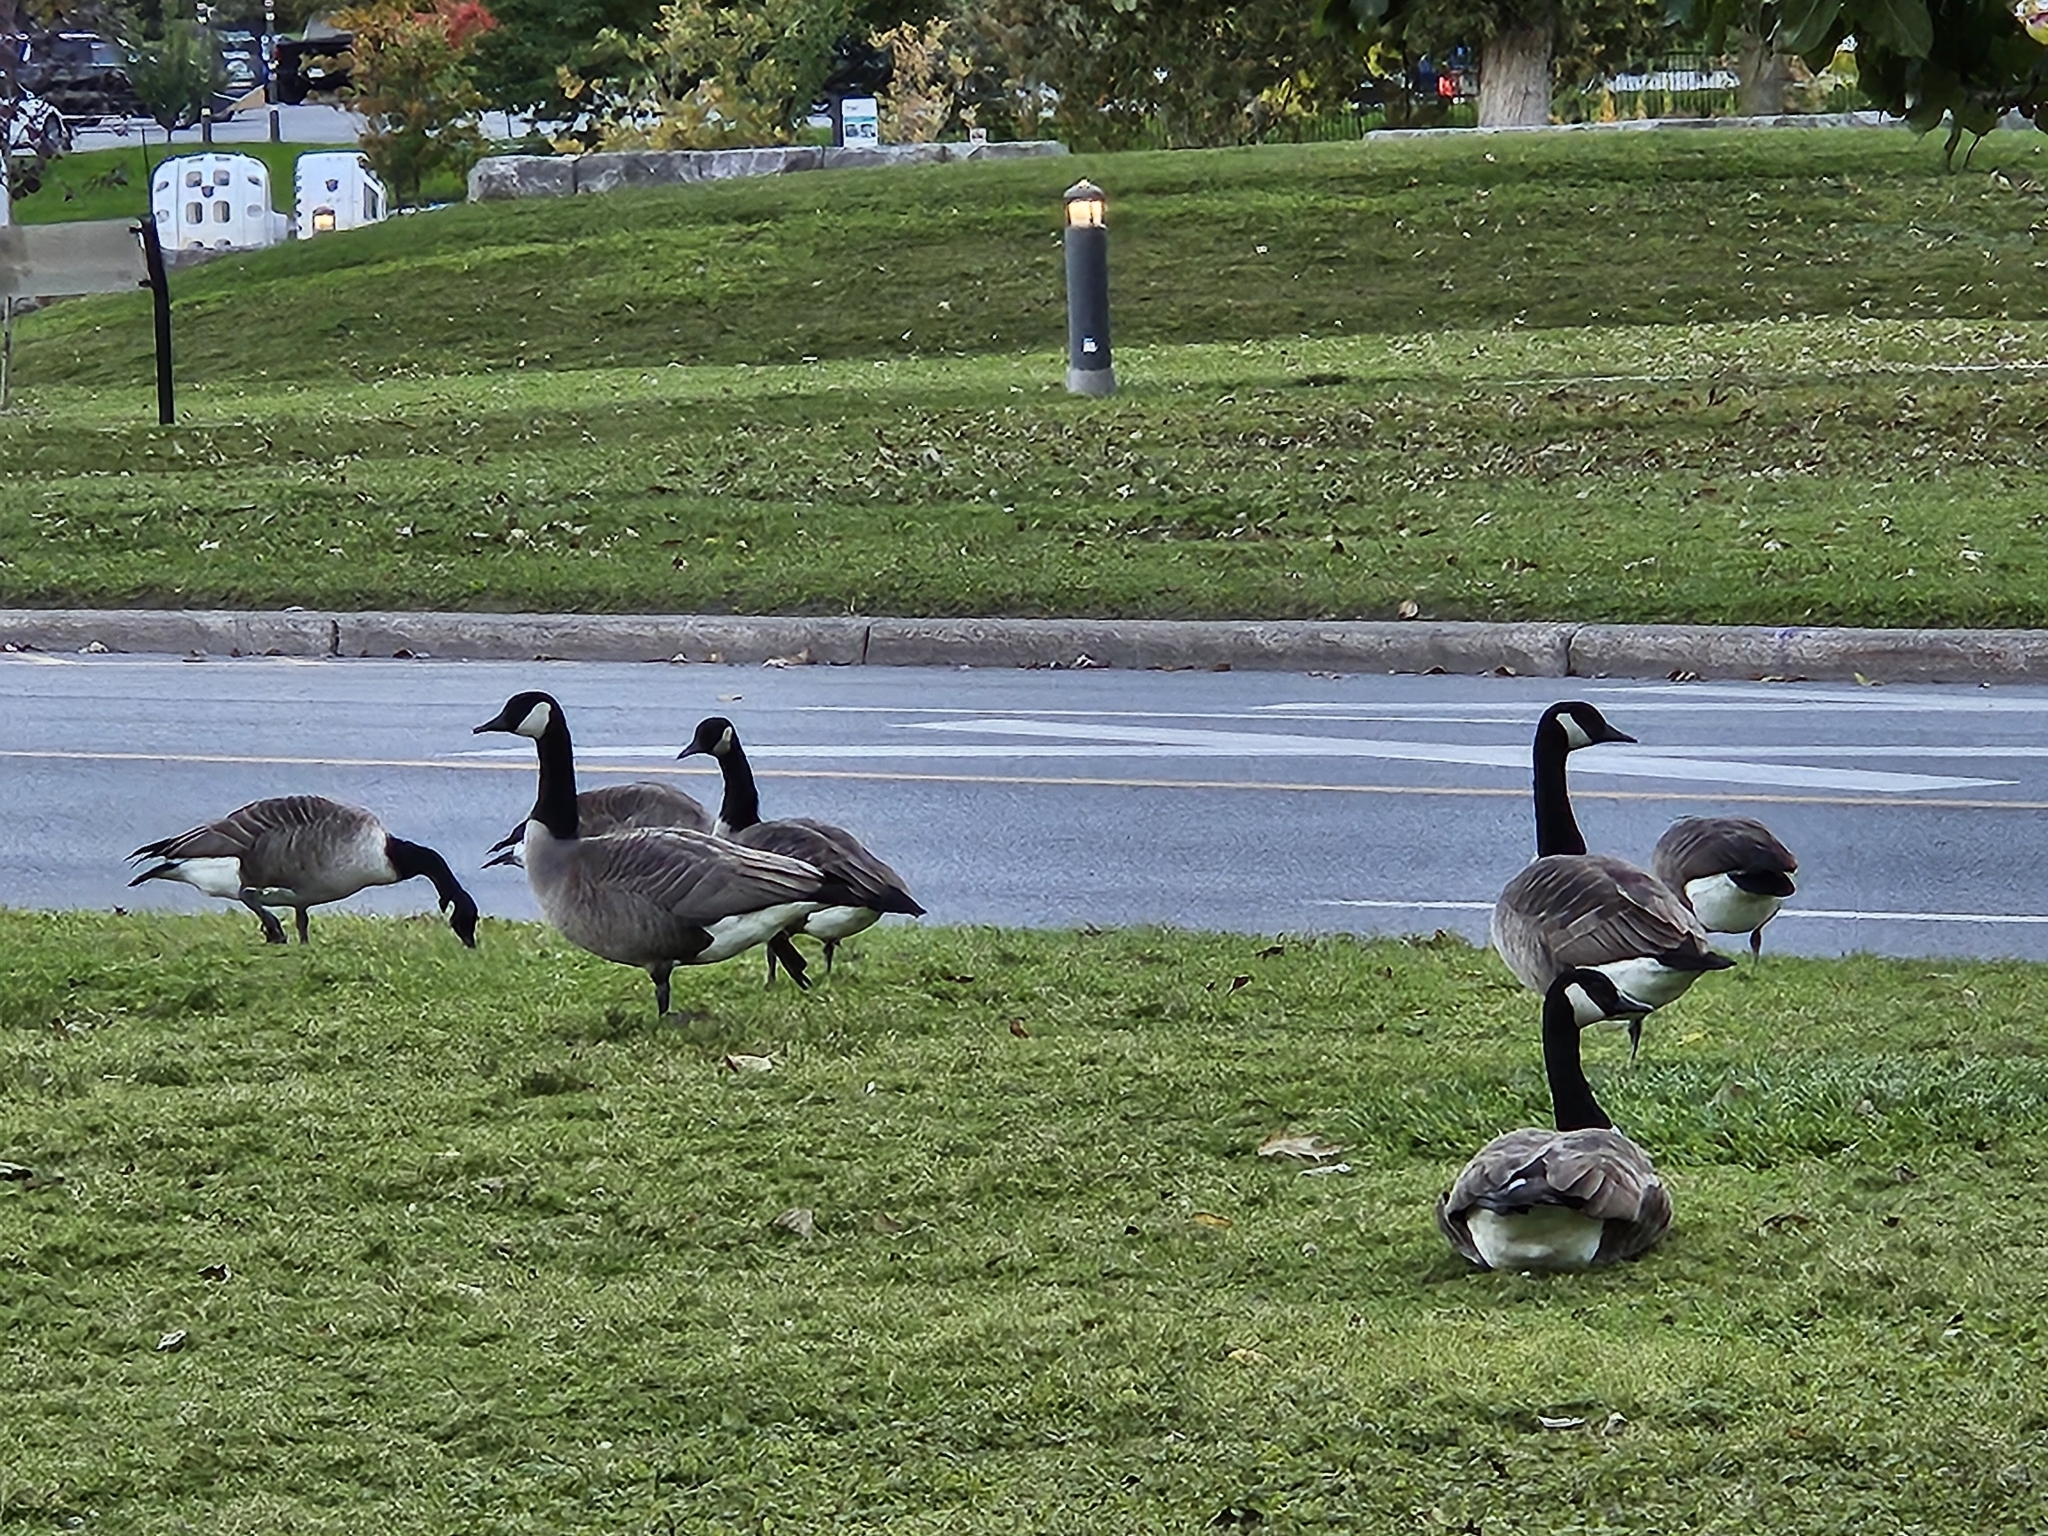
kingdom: Animalia
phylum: Chordata
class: Aves
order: Anseriformes
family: Anatidae
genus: Branta
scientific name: Branta canadensis
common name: Canada goose
